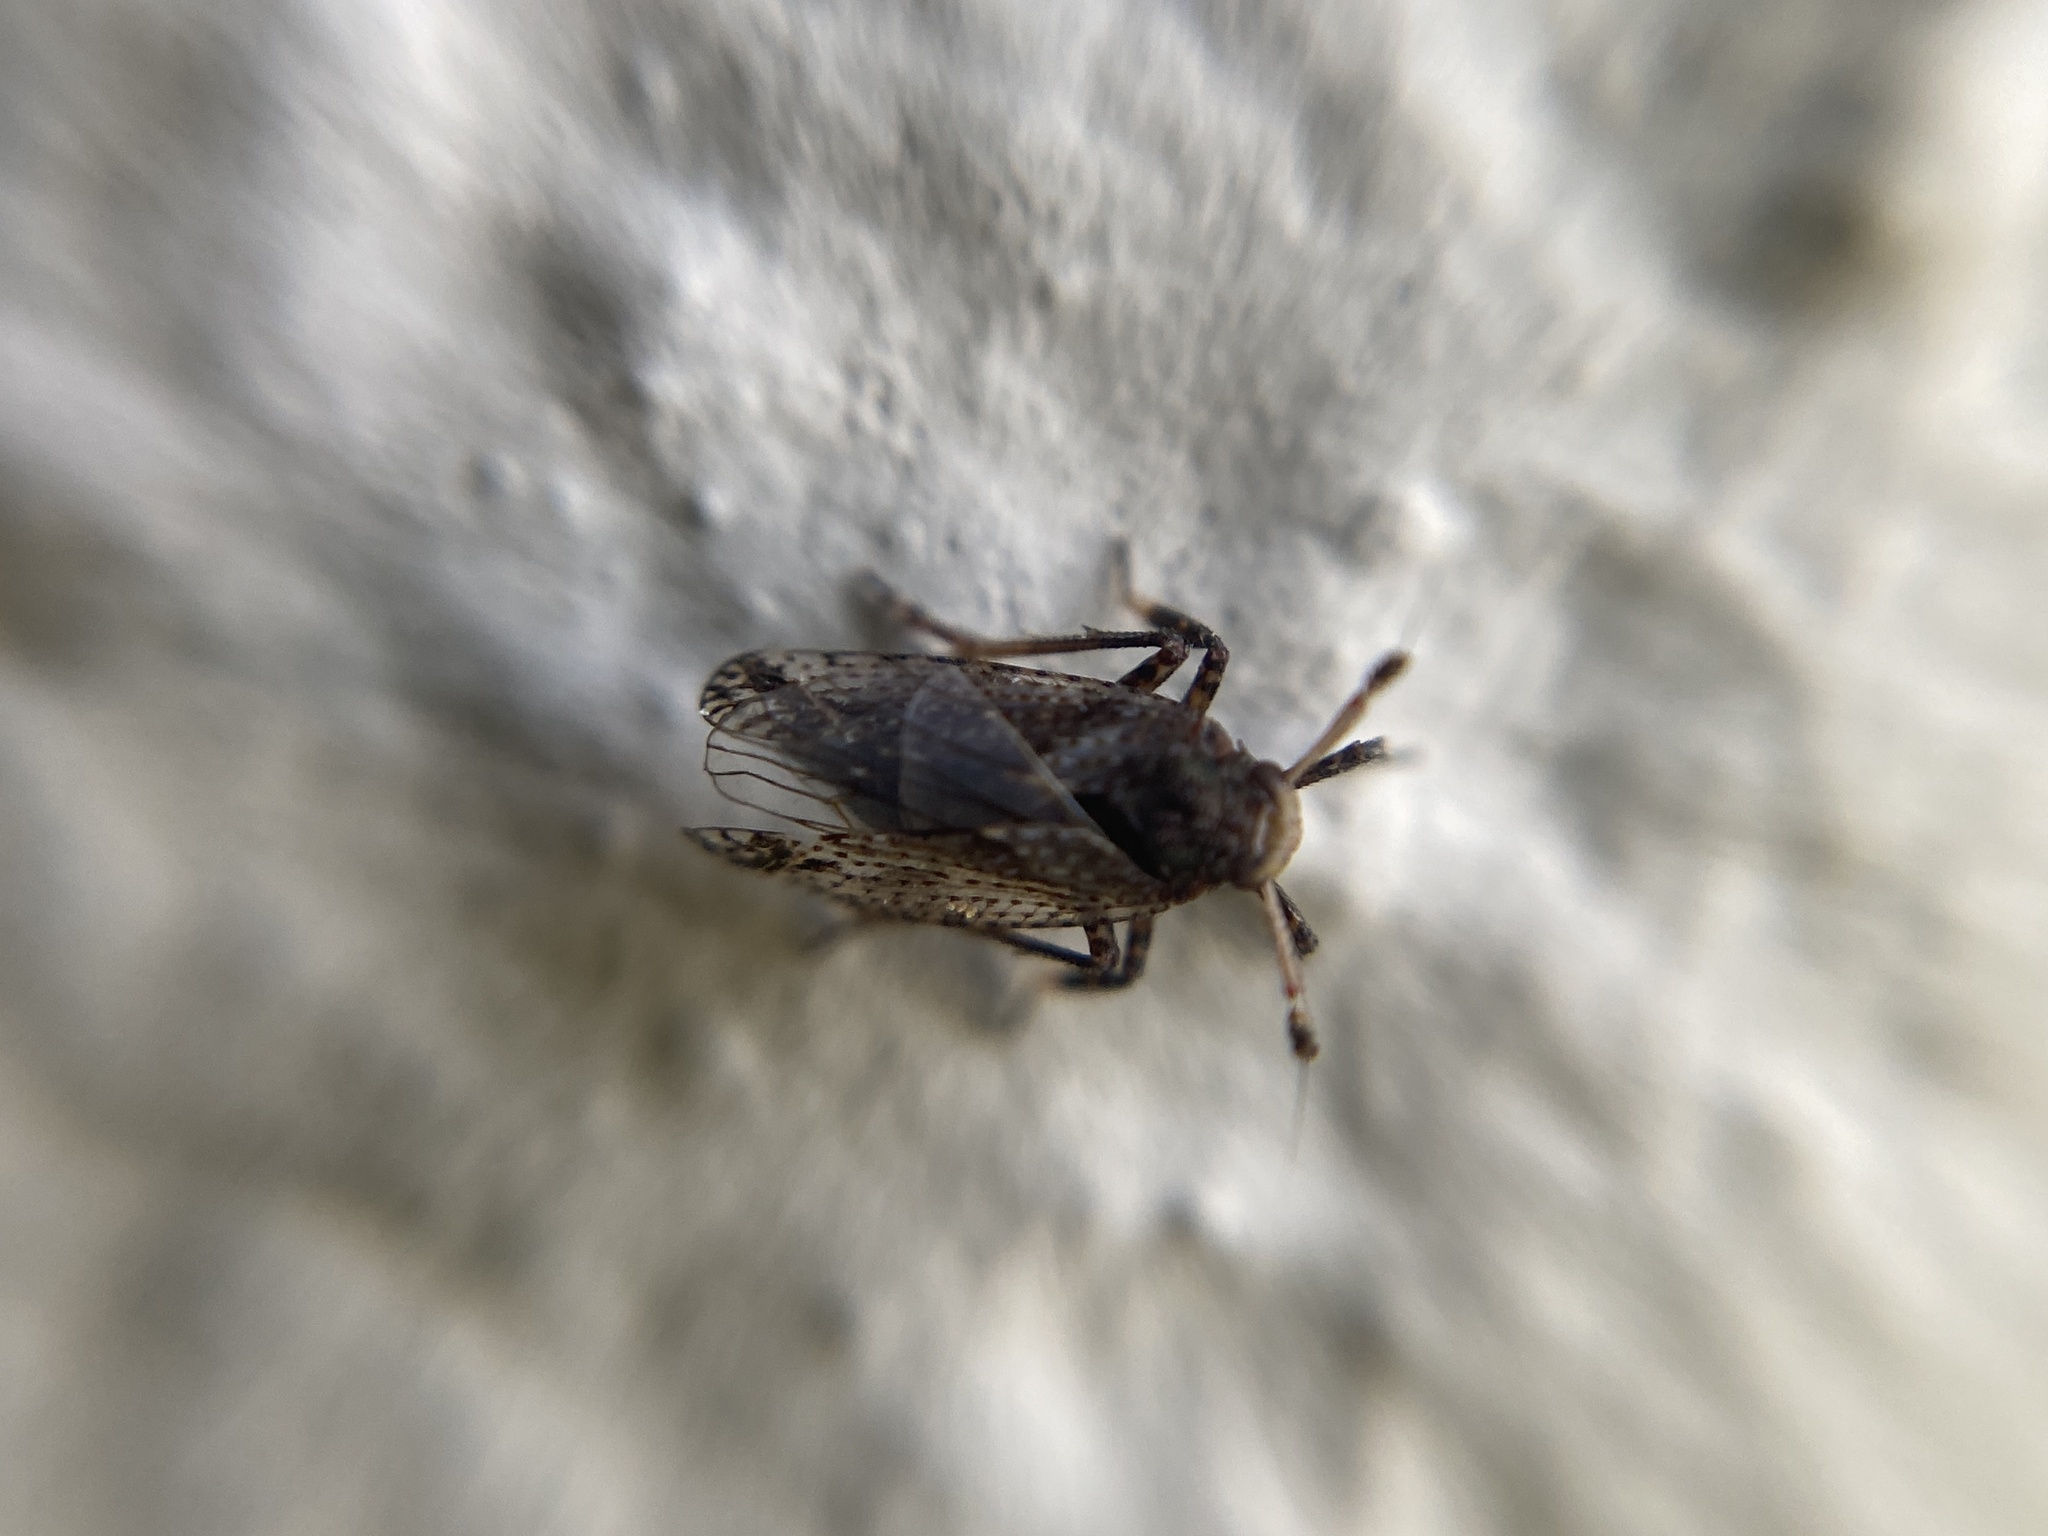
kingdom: Animalia
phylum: Arthropoda
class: Insecta
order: Hemiptera
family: Delphacidae
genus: Asiraca
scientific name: Asiraca clavicornis
